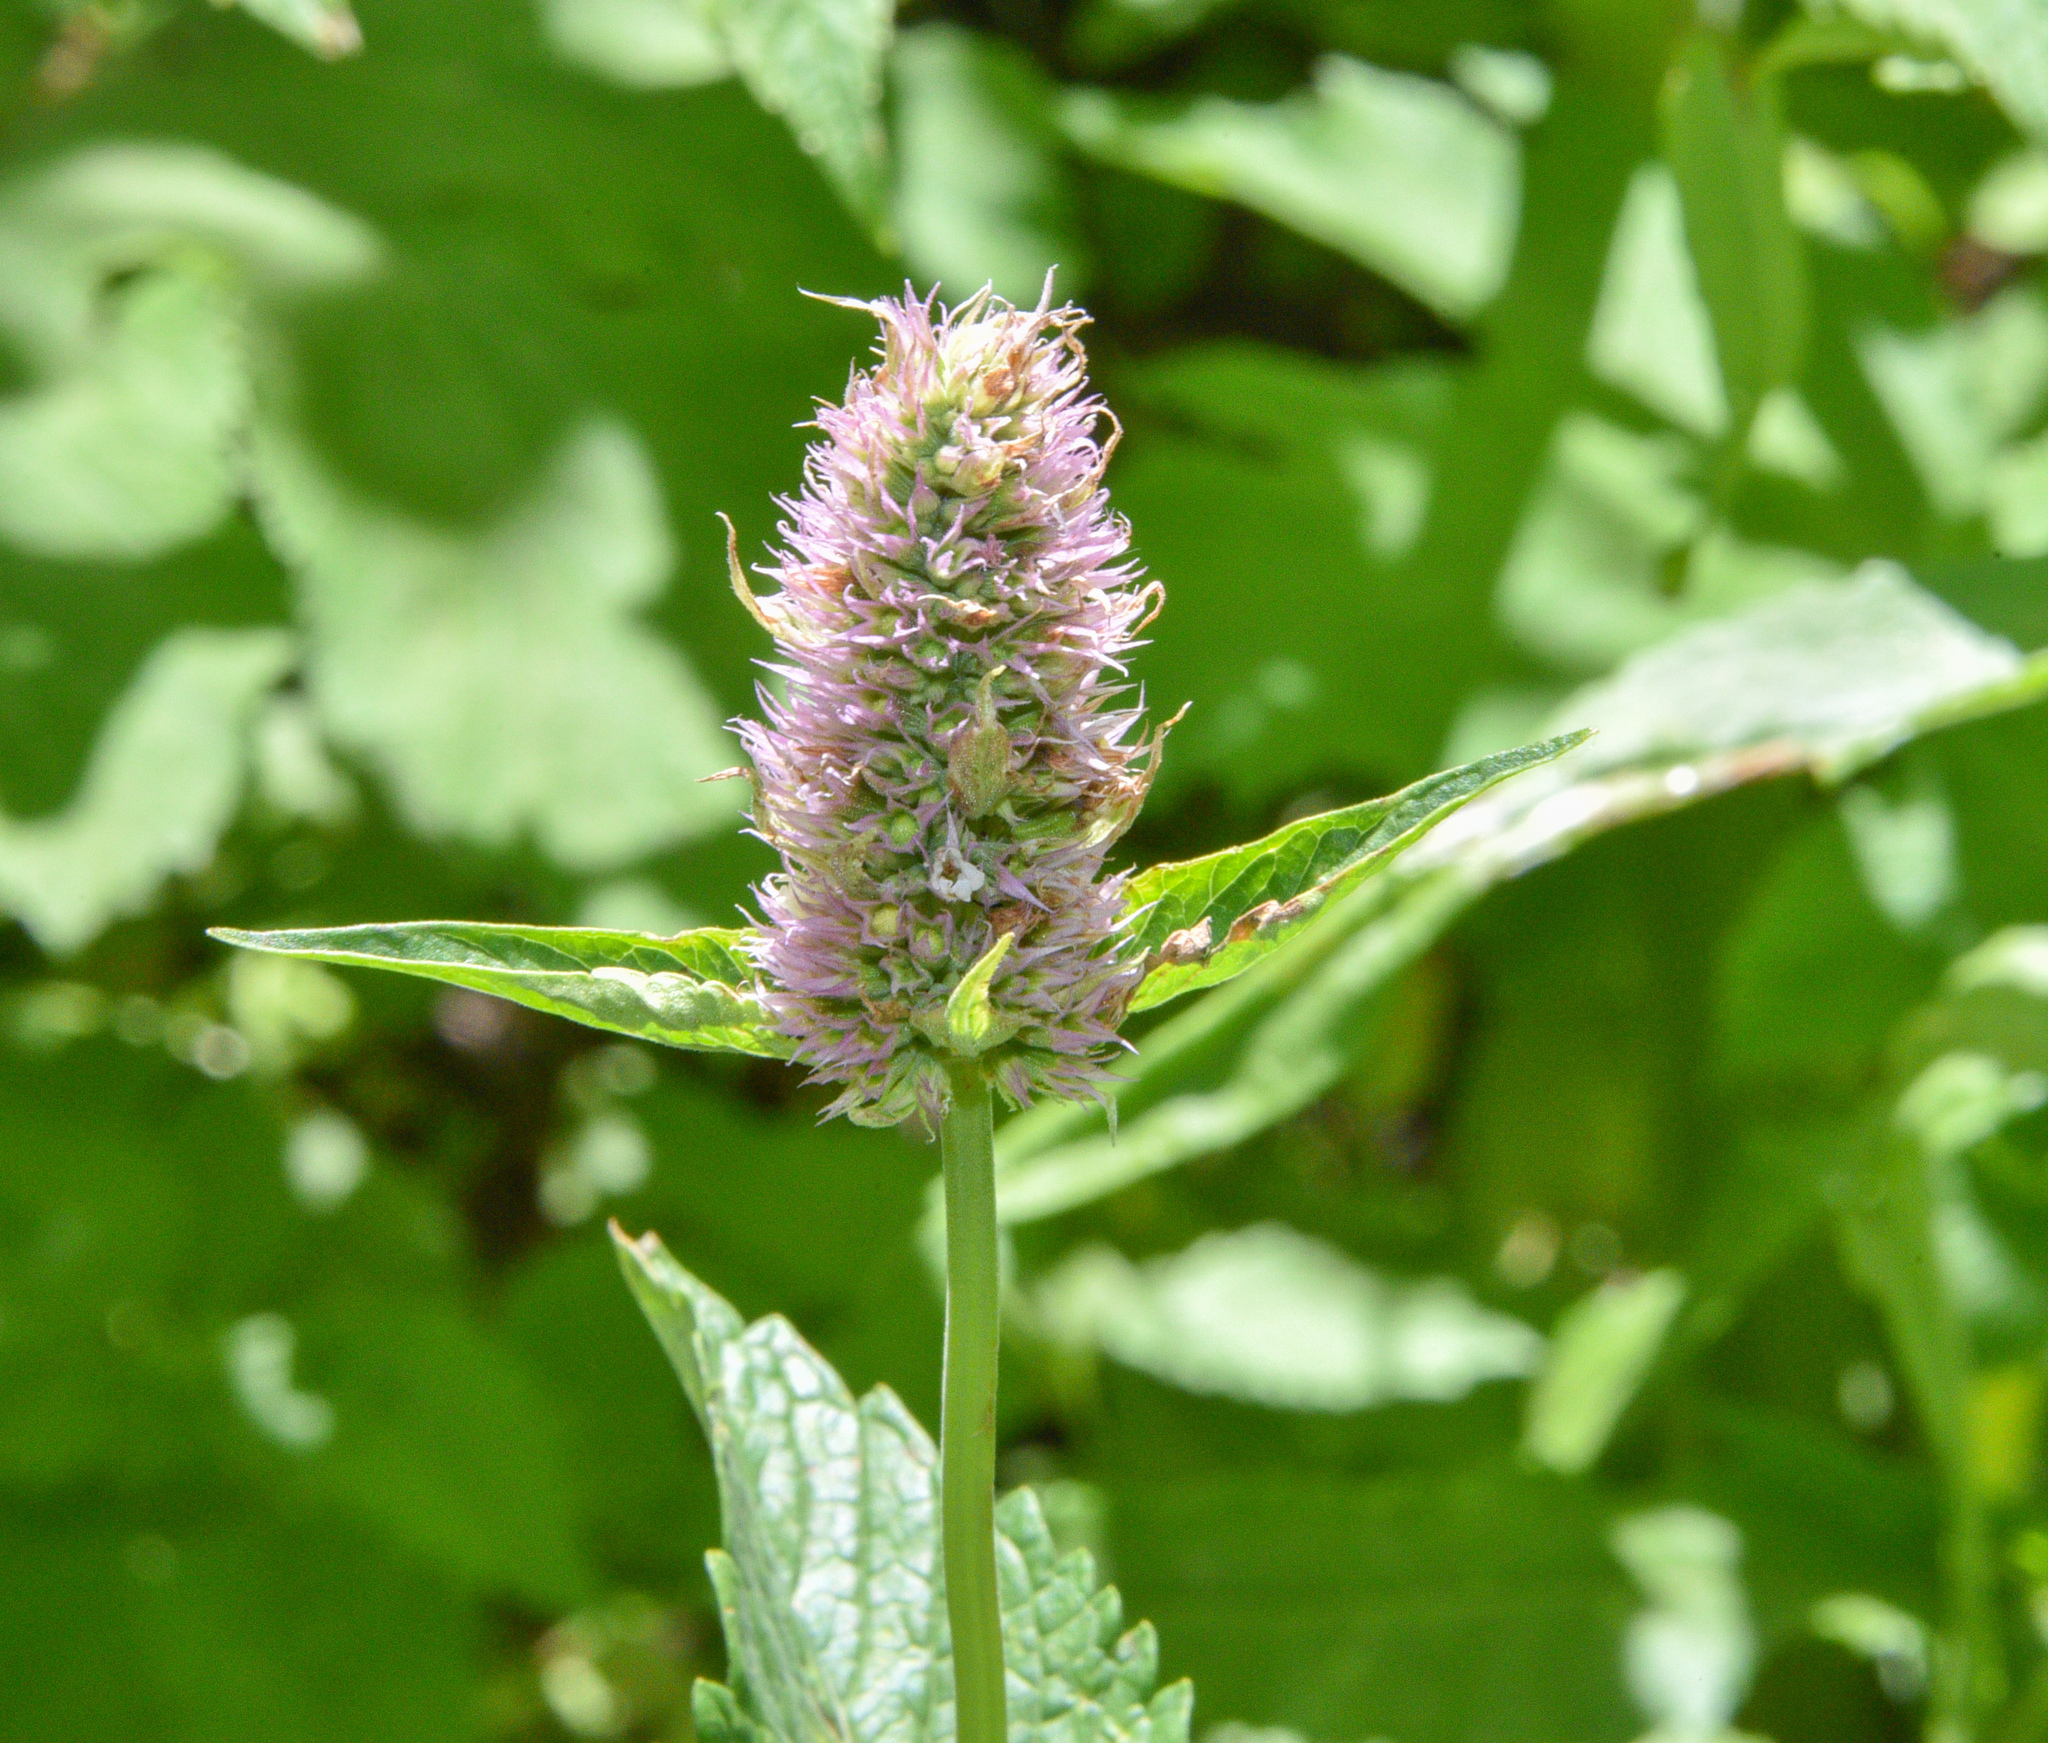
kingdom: Plantae
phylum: Tracheophyta
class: Magnoliopsida
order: Lamiales
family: Lamiaceae
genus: Agastache
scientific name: Agastache urticifolia
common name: Horsemint giant hyssop
